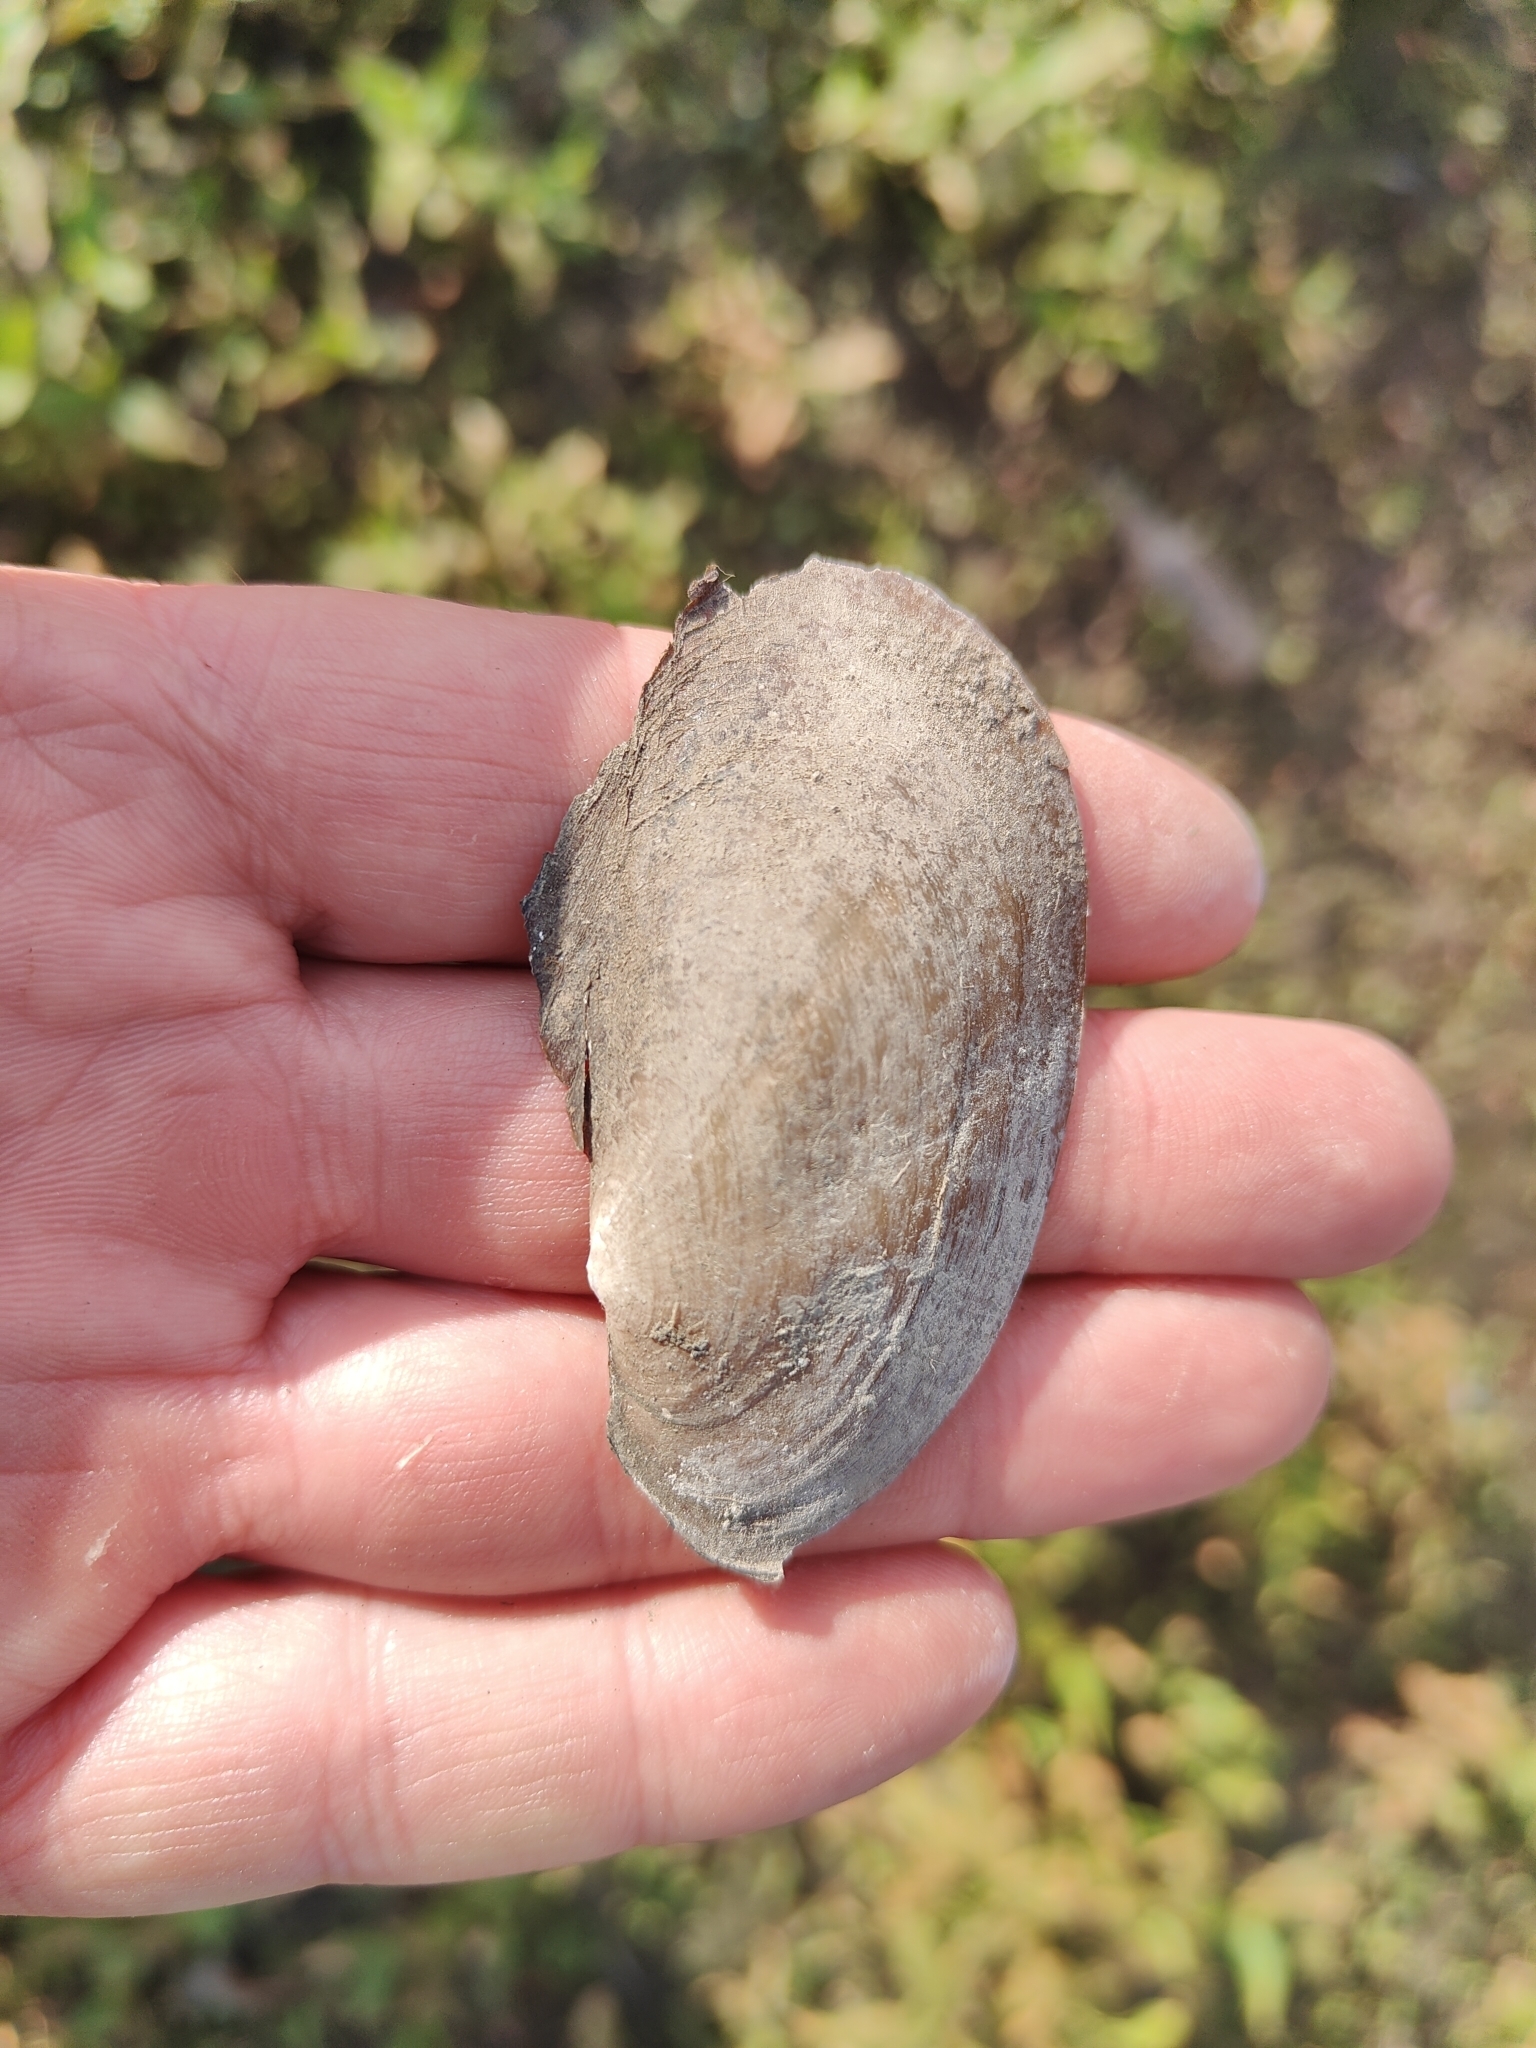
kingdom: Animalia
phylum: Mollusca
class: Bivalvia
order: Unionida
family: Unionidae
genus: Potamilus
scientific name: Potamilus fragilis
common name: Fragile papershell
